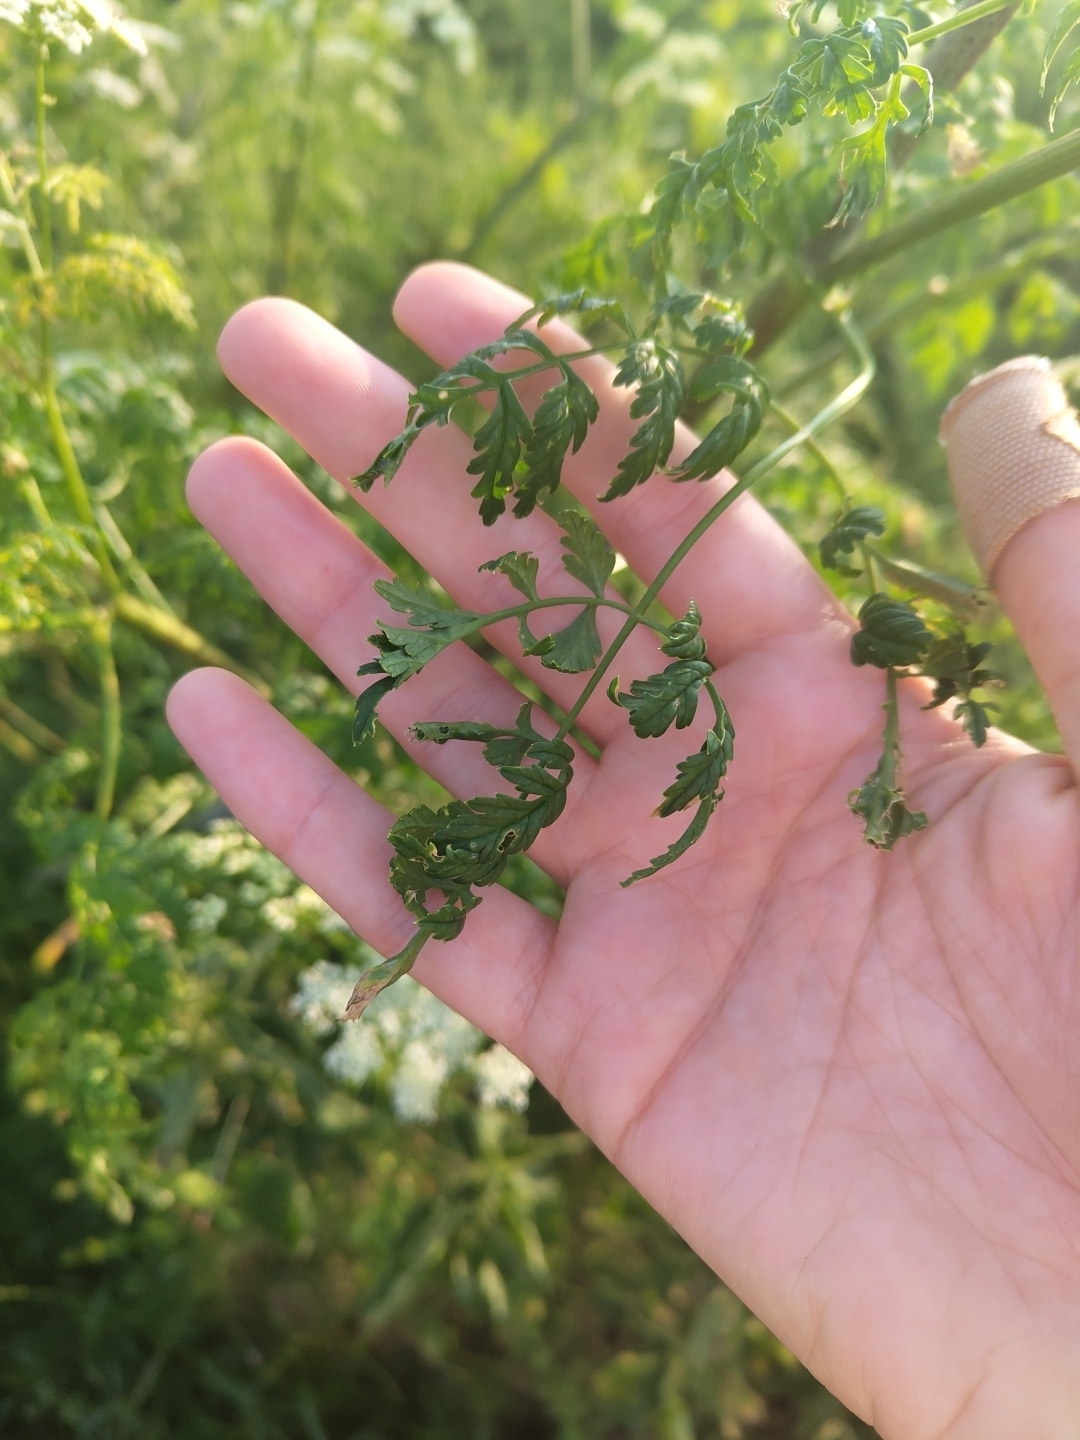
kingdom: Plantae
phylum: Tracheophyta
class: Magnoliopsida
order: Apiales
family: Apiaceae
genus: Conium
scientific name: Conium maculatum
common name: Hemlock
